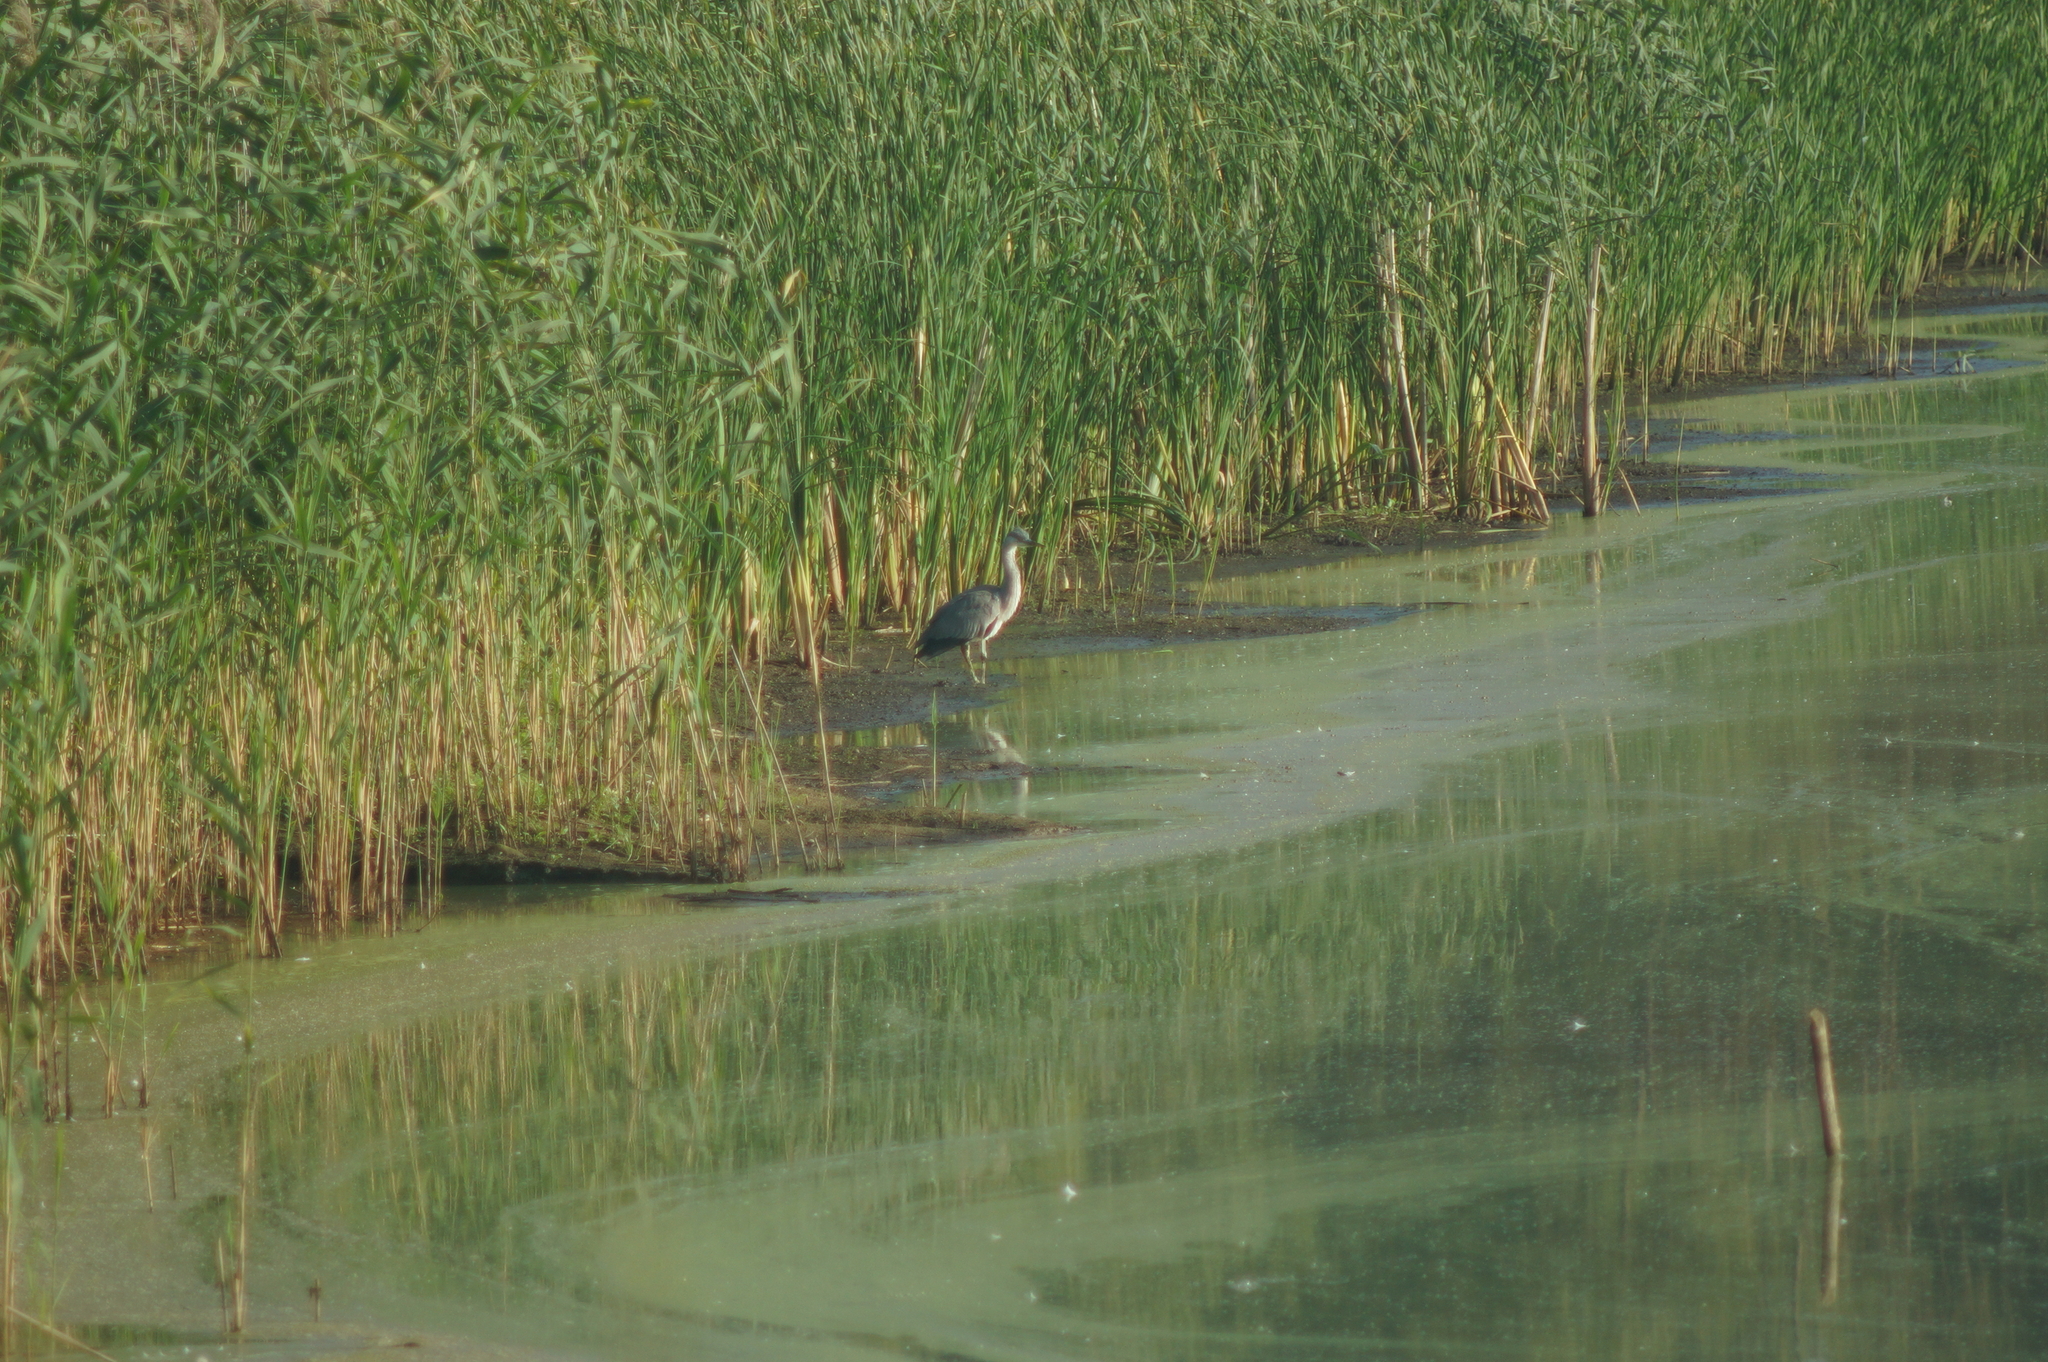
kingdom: Animalia
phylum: Chordata
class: Aves
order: Pelecaniformes
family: Ardeidae
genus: Ardea
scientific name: Ardea cinerea
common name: Grey heron
